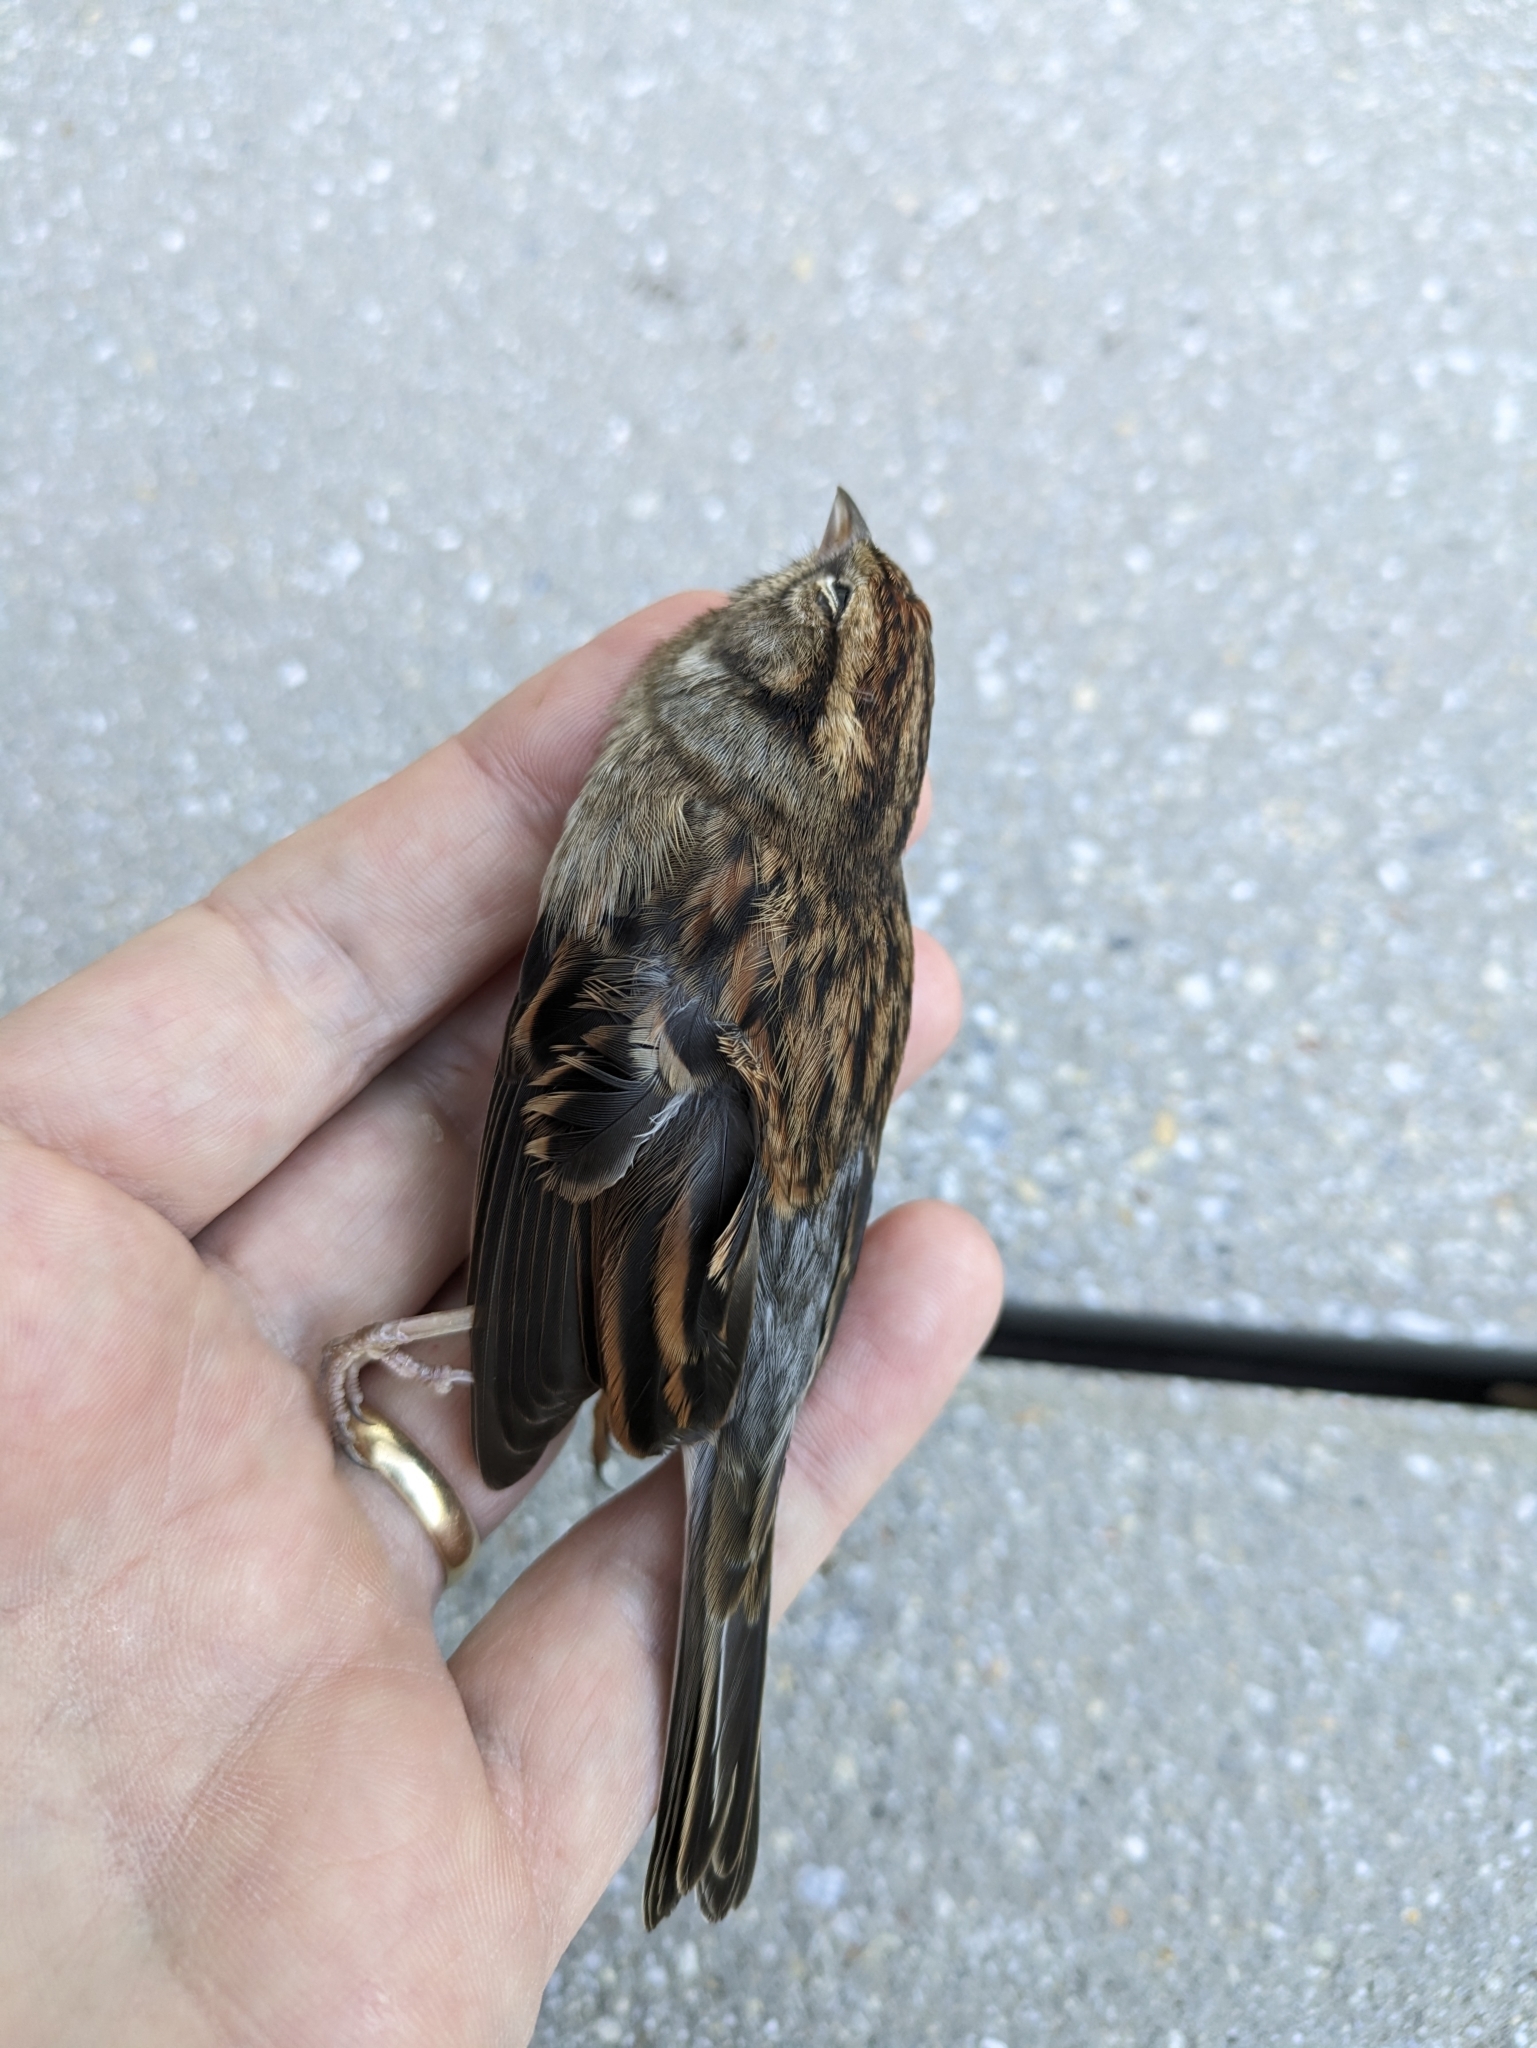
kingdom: Animalia
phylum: Chordata
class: Aves
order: Passeriformes
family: Passerellidae
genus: Spizella
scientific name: Spizella passerina
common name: Chipping sparrow
